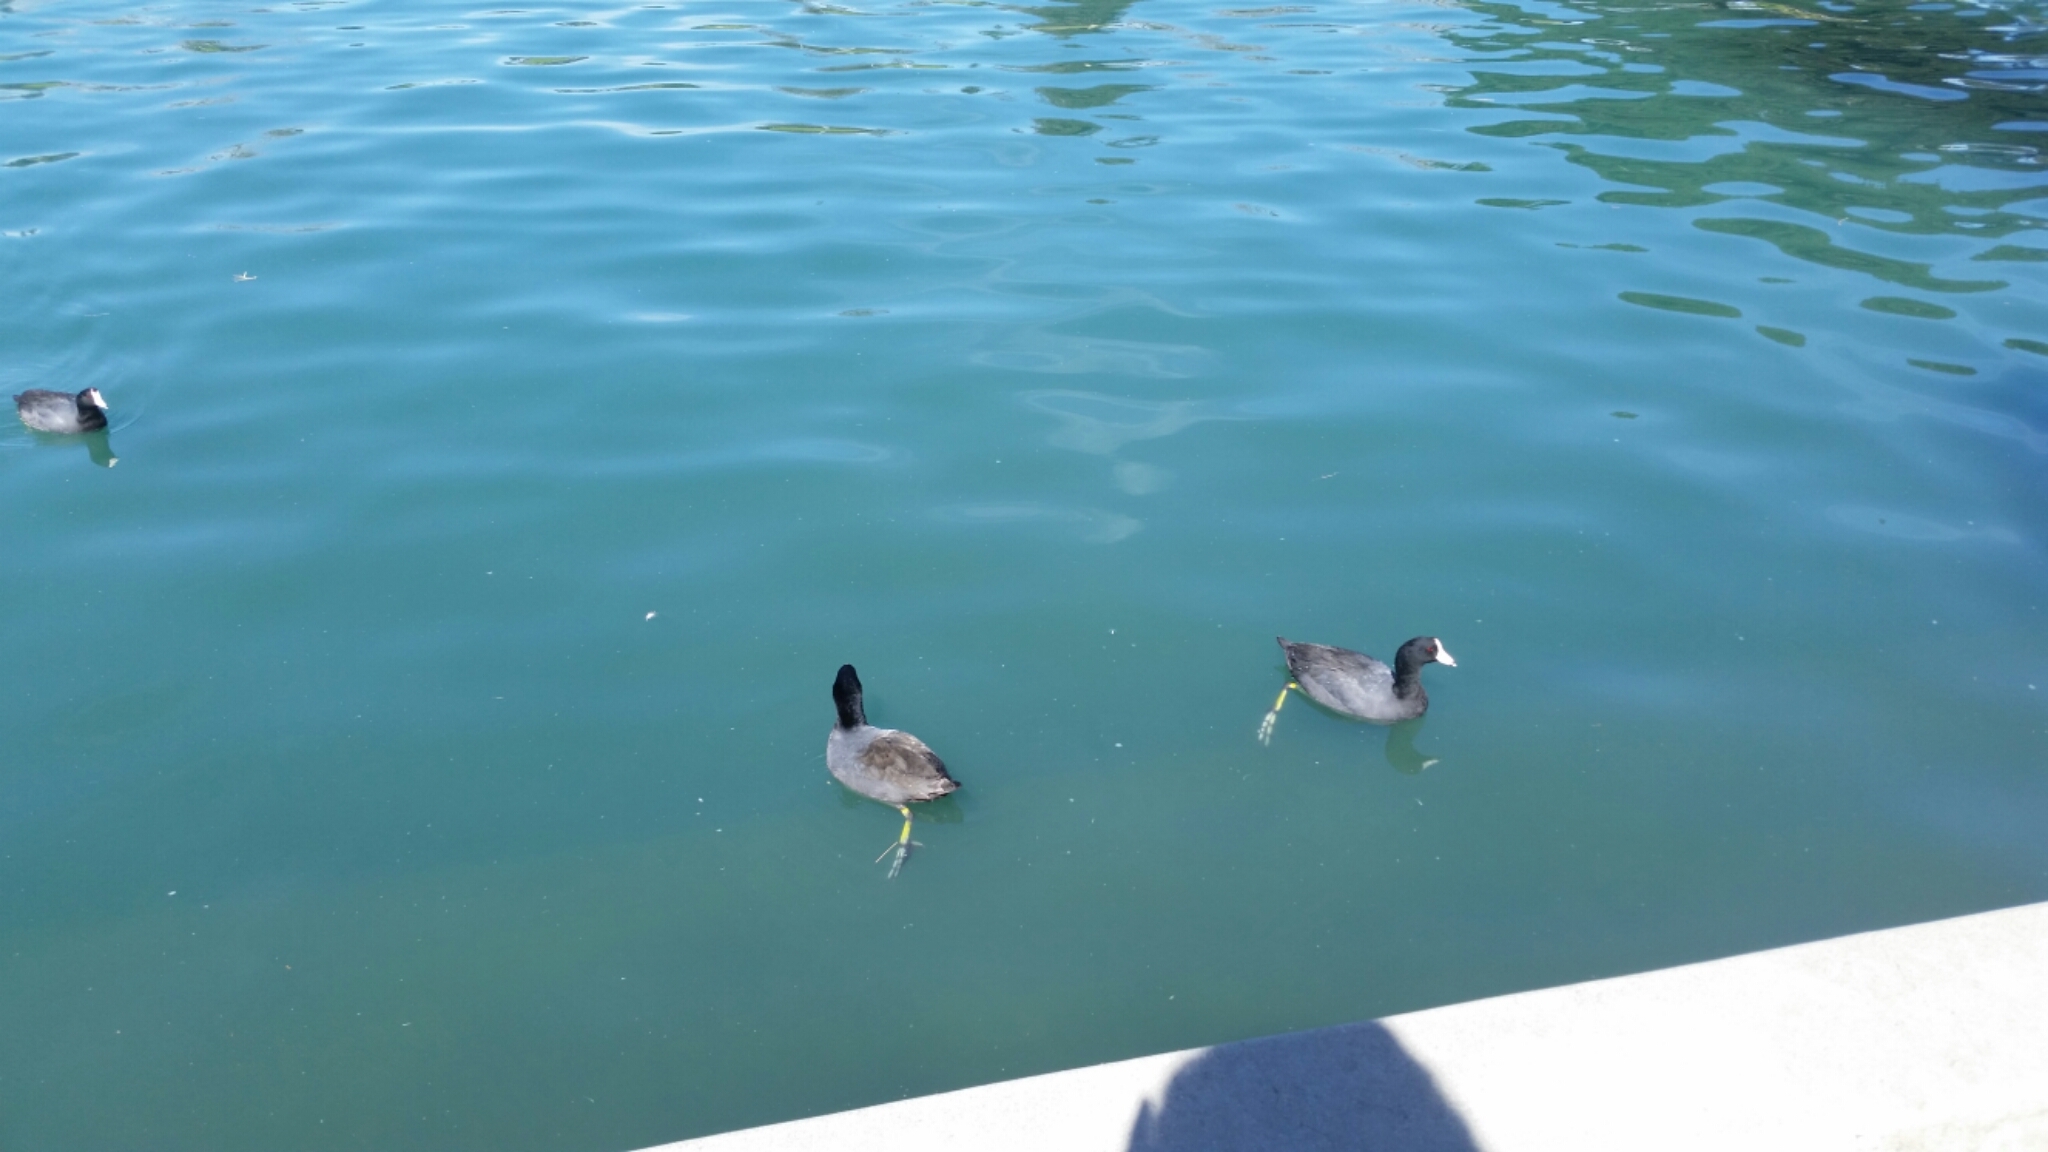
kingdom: Animalia
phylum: Chordata
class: Aves
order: Gruiformes
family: Rallidae
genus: Fulica
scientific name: Fulica americana
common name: American coot
